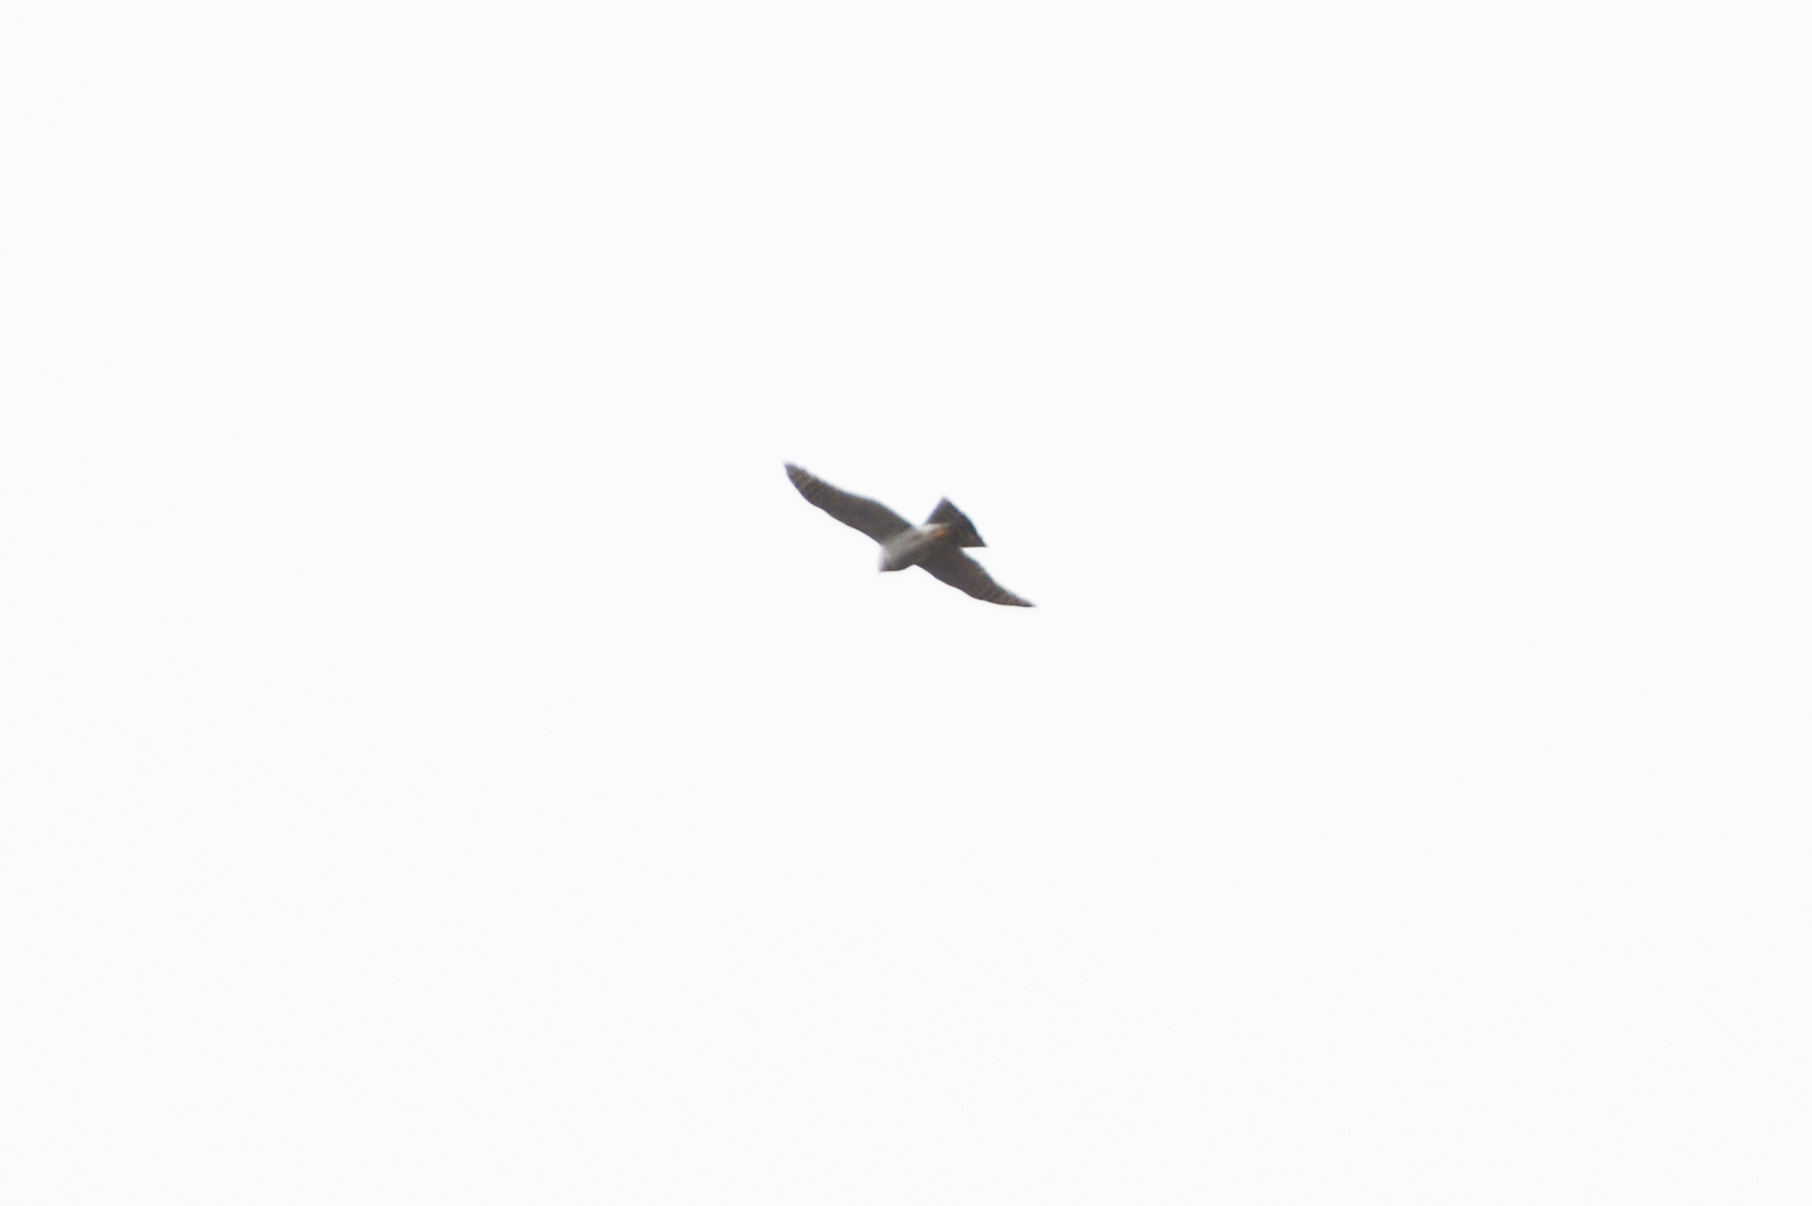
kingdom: Animalia
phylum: Chordata
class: Aves
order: Accipitriformes
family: Accipitridae
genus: Accipiter
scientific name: Accipiter nisus
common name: Eurasian sparrowhawk
